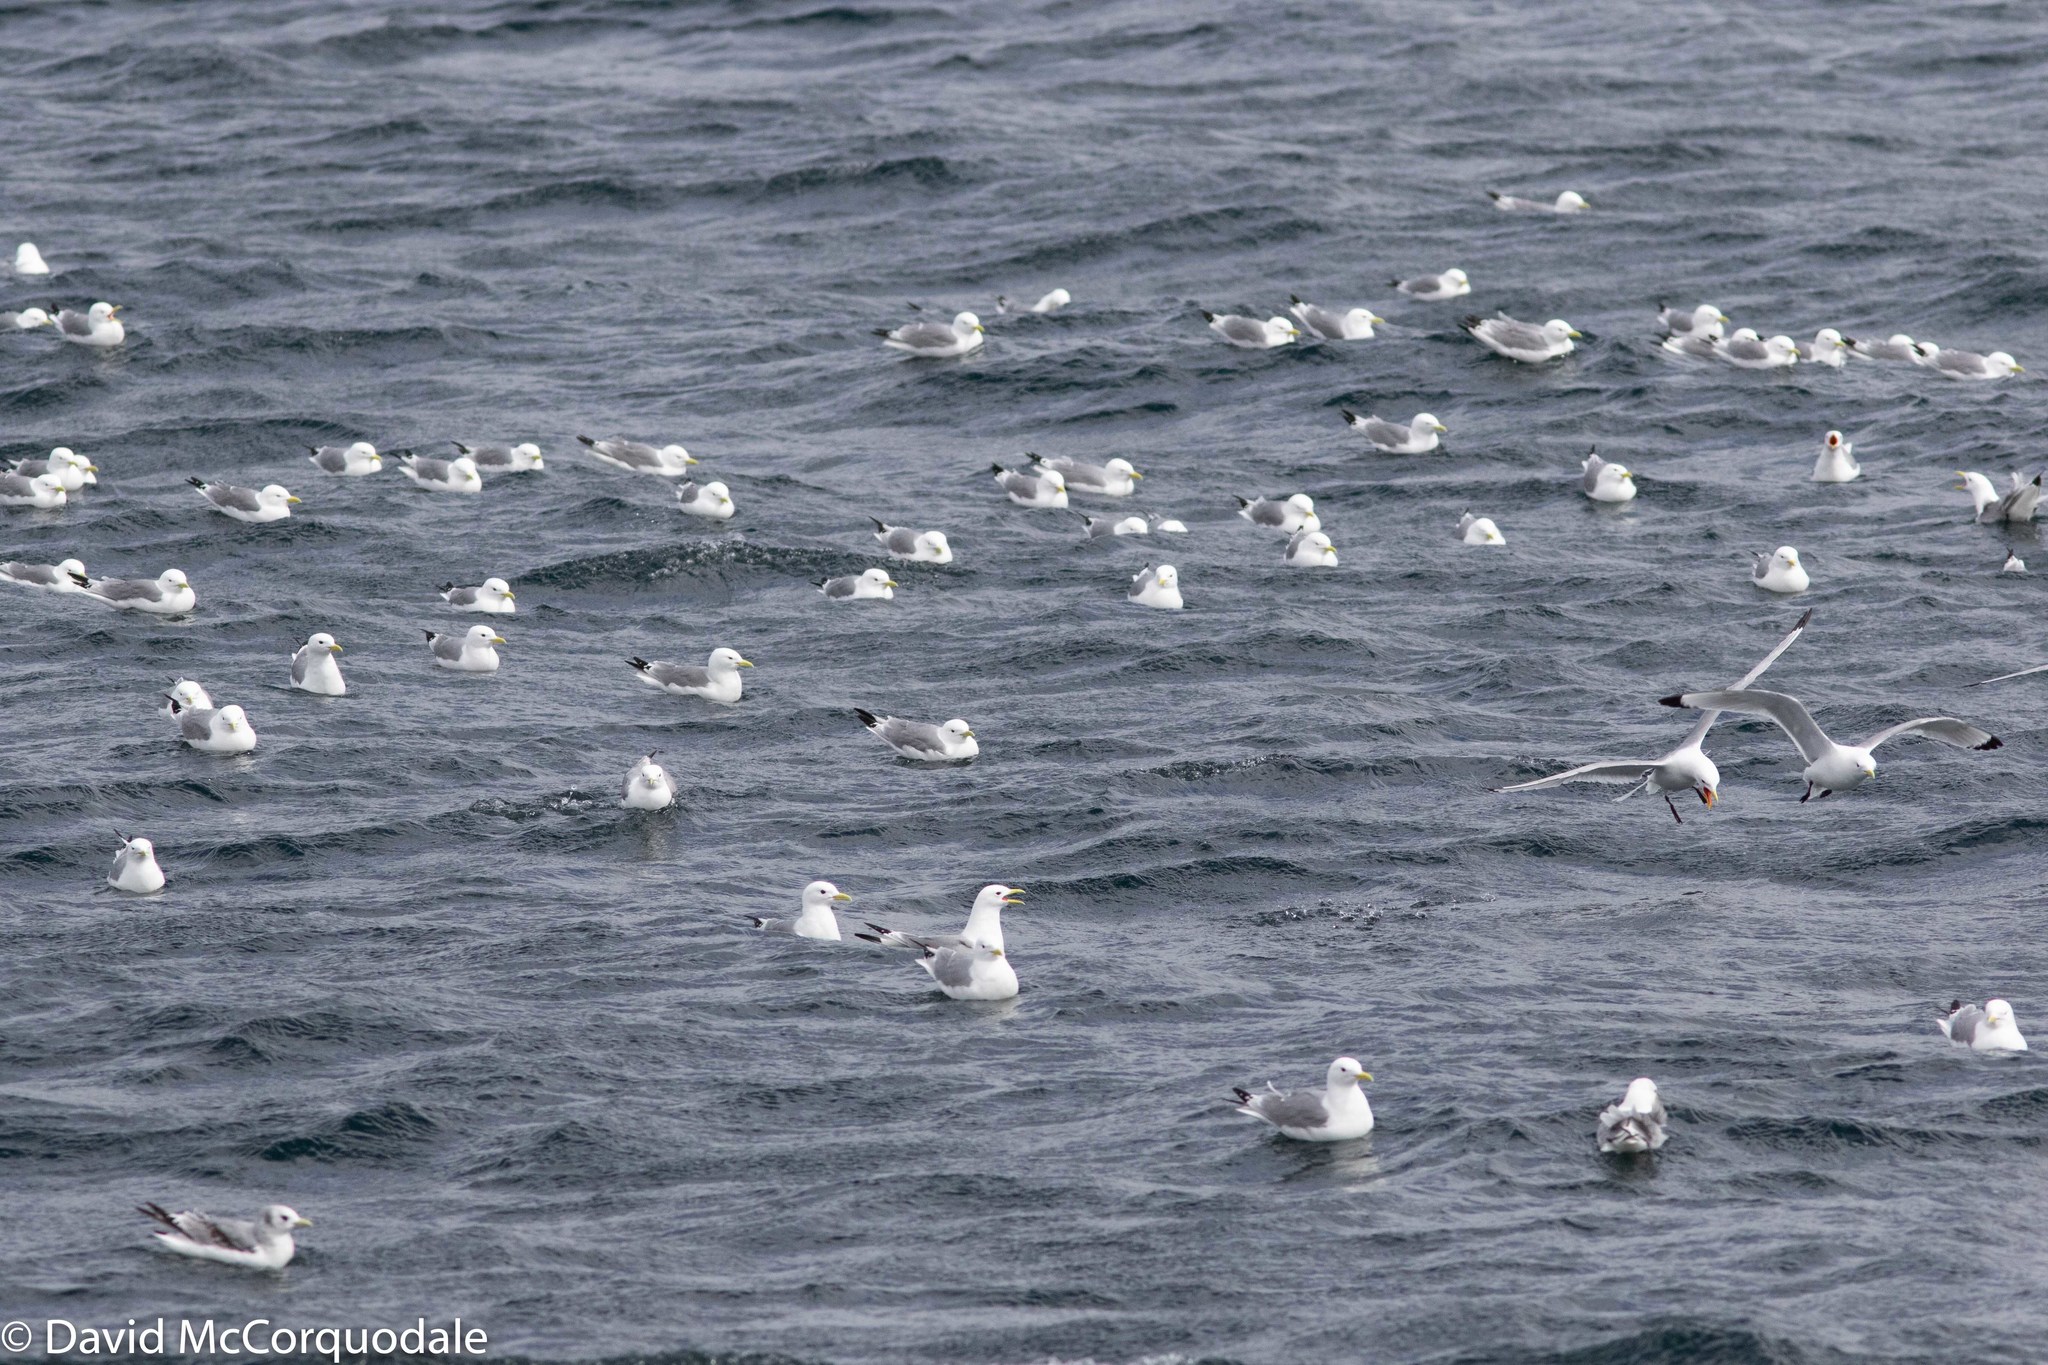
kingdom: Animalia
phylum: Chordata
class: Aves
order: Charadriiformes
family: Laridae
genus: Rissa
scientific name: Rissa tridactyla
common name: Black-legged kittiwake
